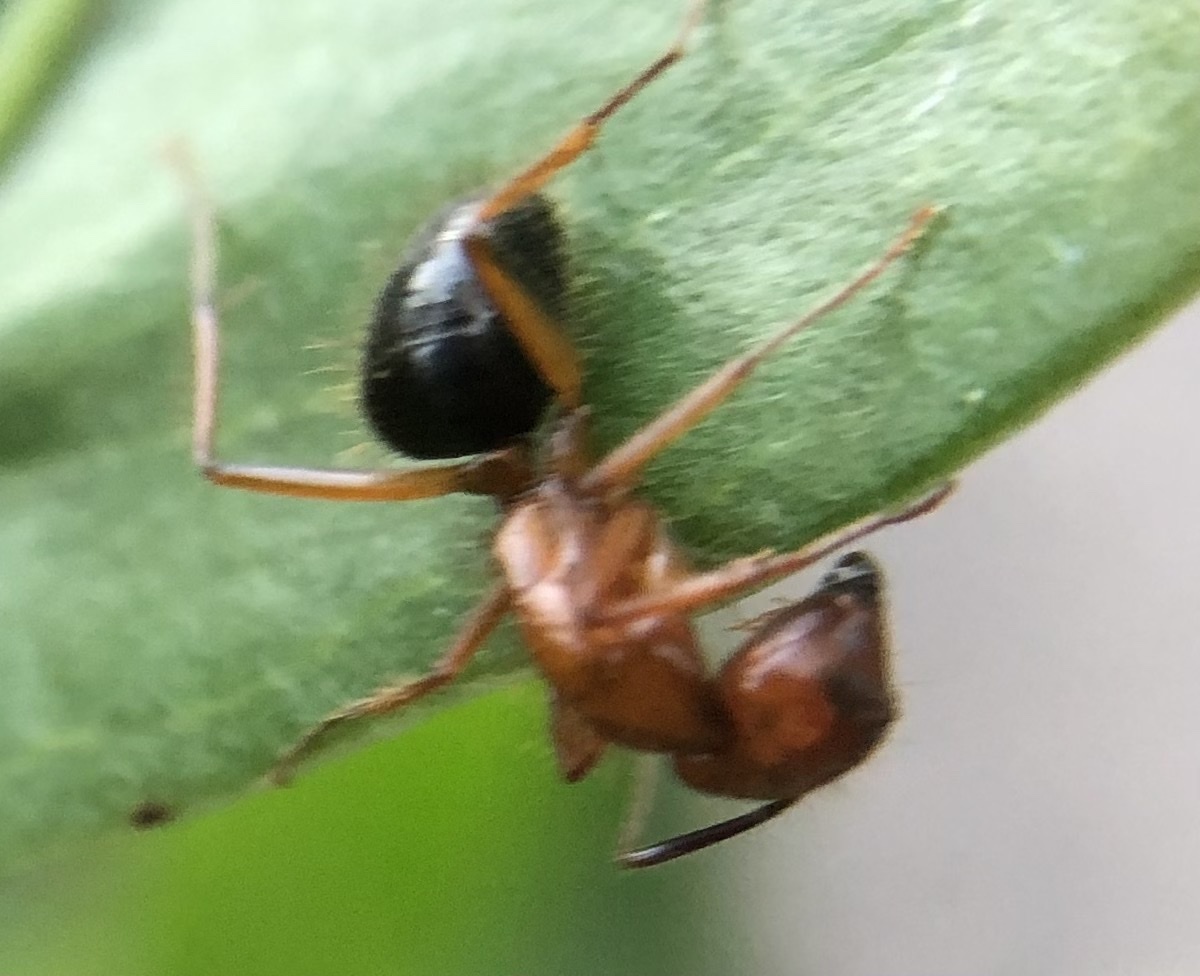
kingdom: Animalia
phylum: Arthropoda
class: Insecta
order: Hymenoptera
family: Formicidae
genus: Camponotus
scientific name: Camponotus floridanus
